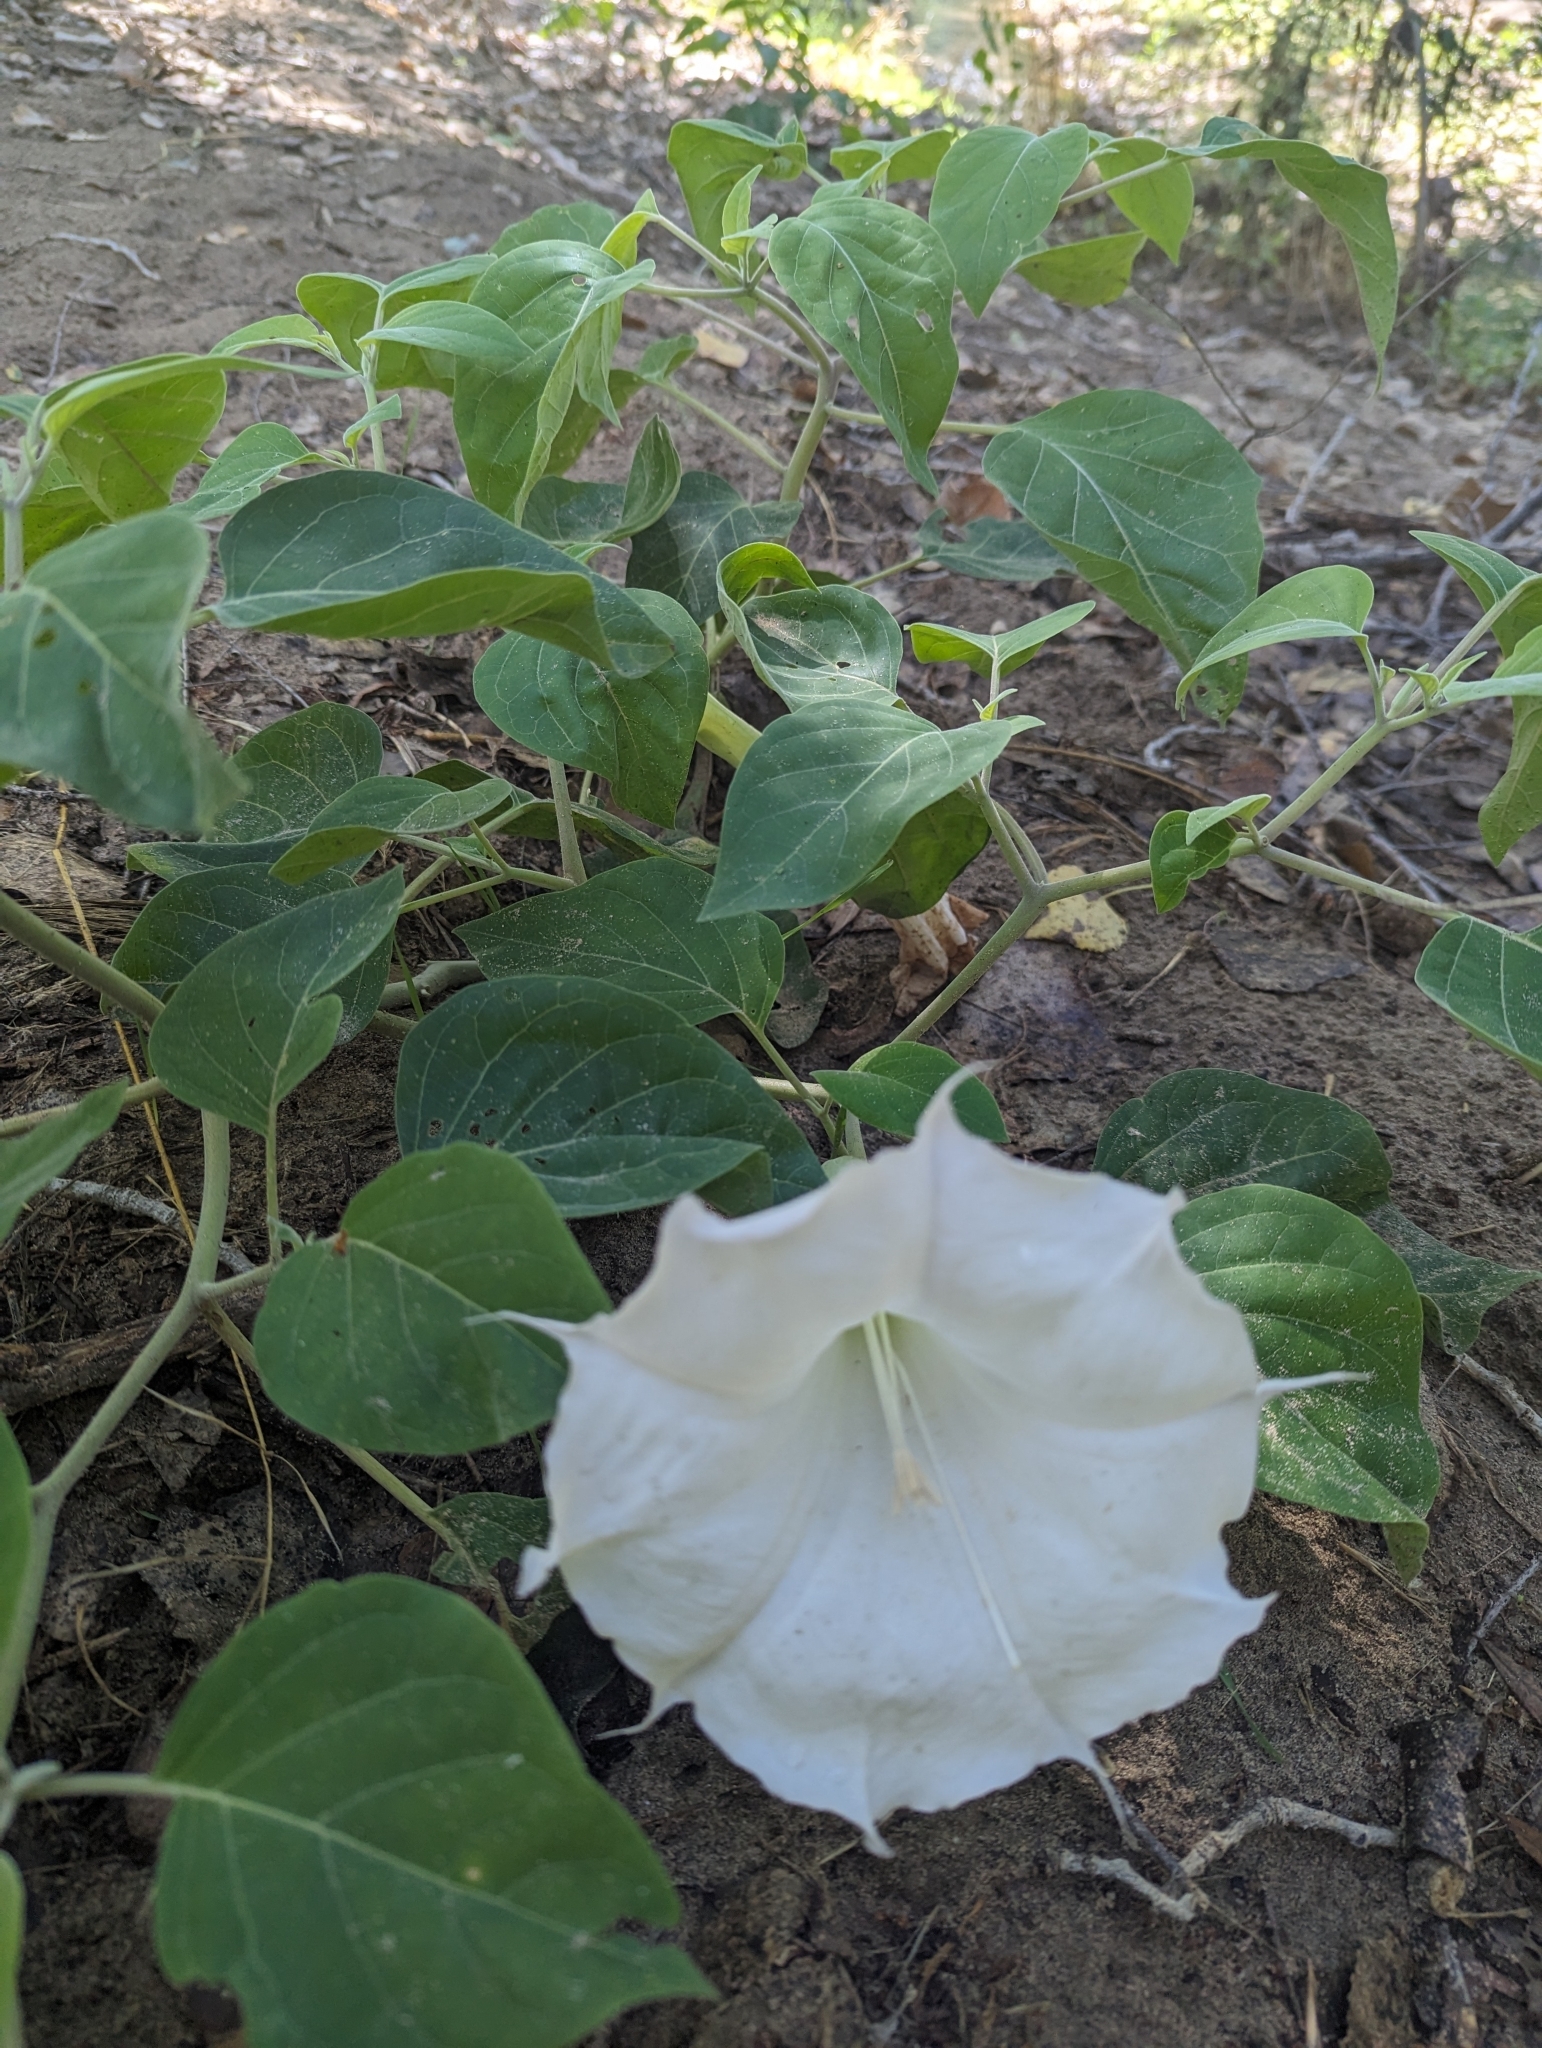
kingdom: Plantae
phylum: Tracheophyta
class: Magnoliopsida
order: Solanales
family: Solanaceae
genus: Datura
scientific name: Datura wrightii
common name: Sacred thorn-apple
